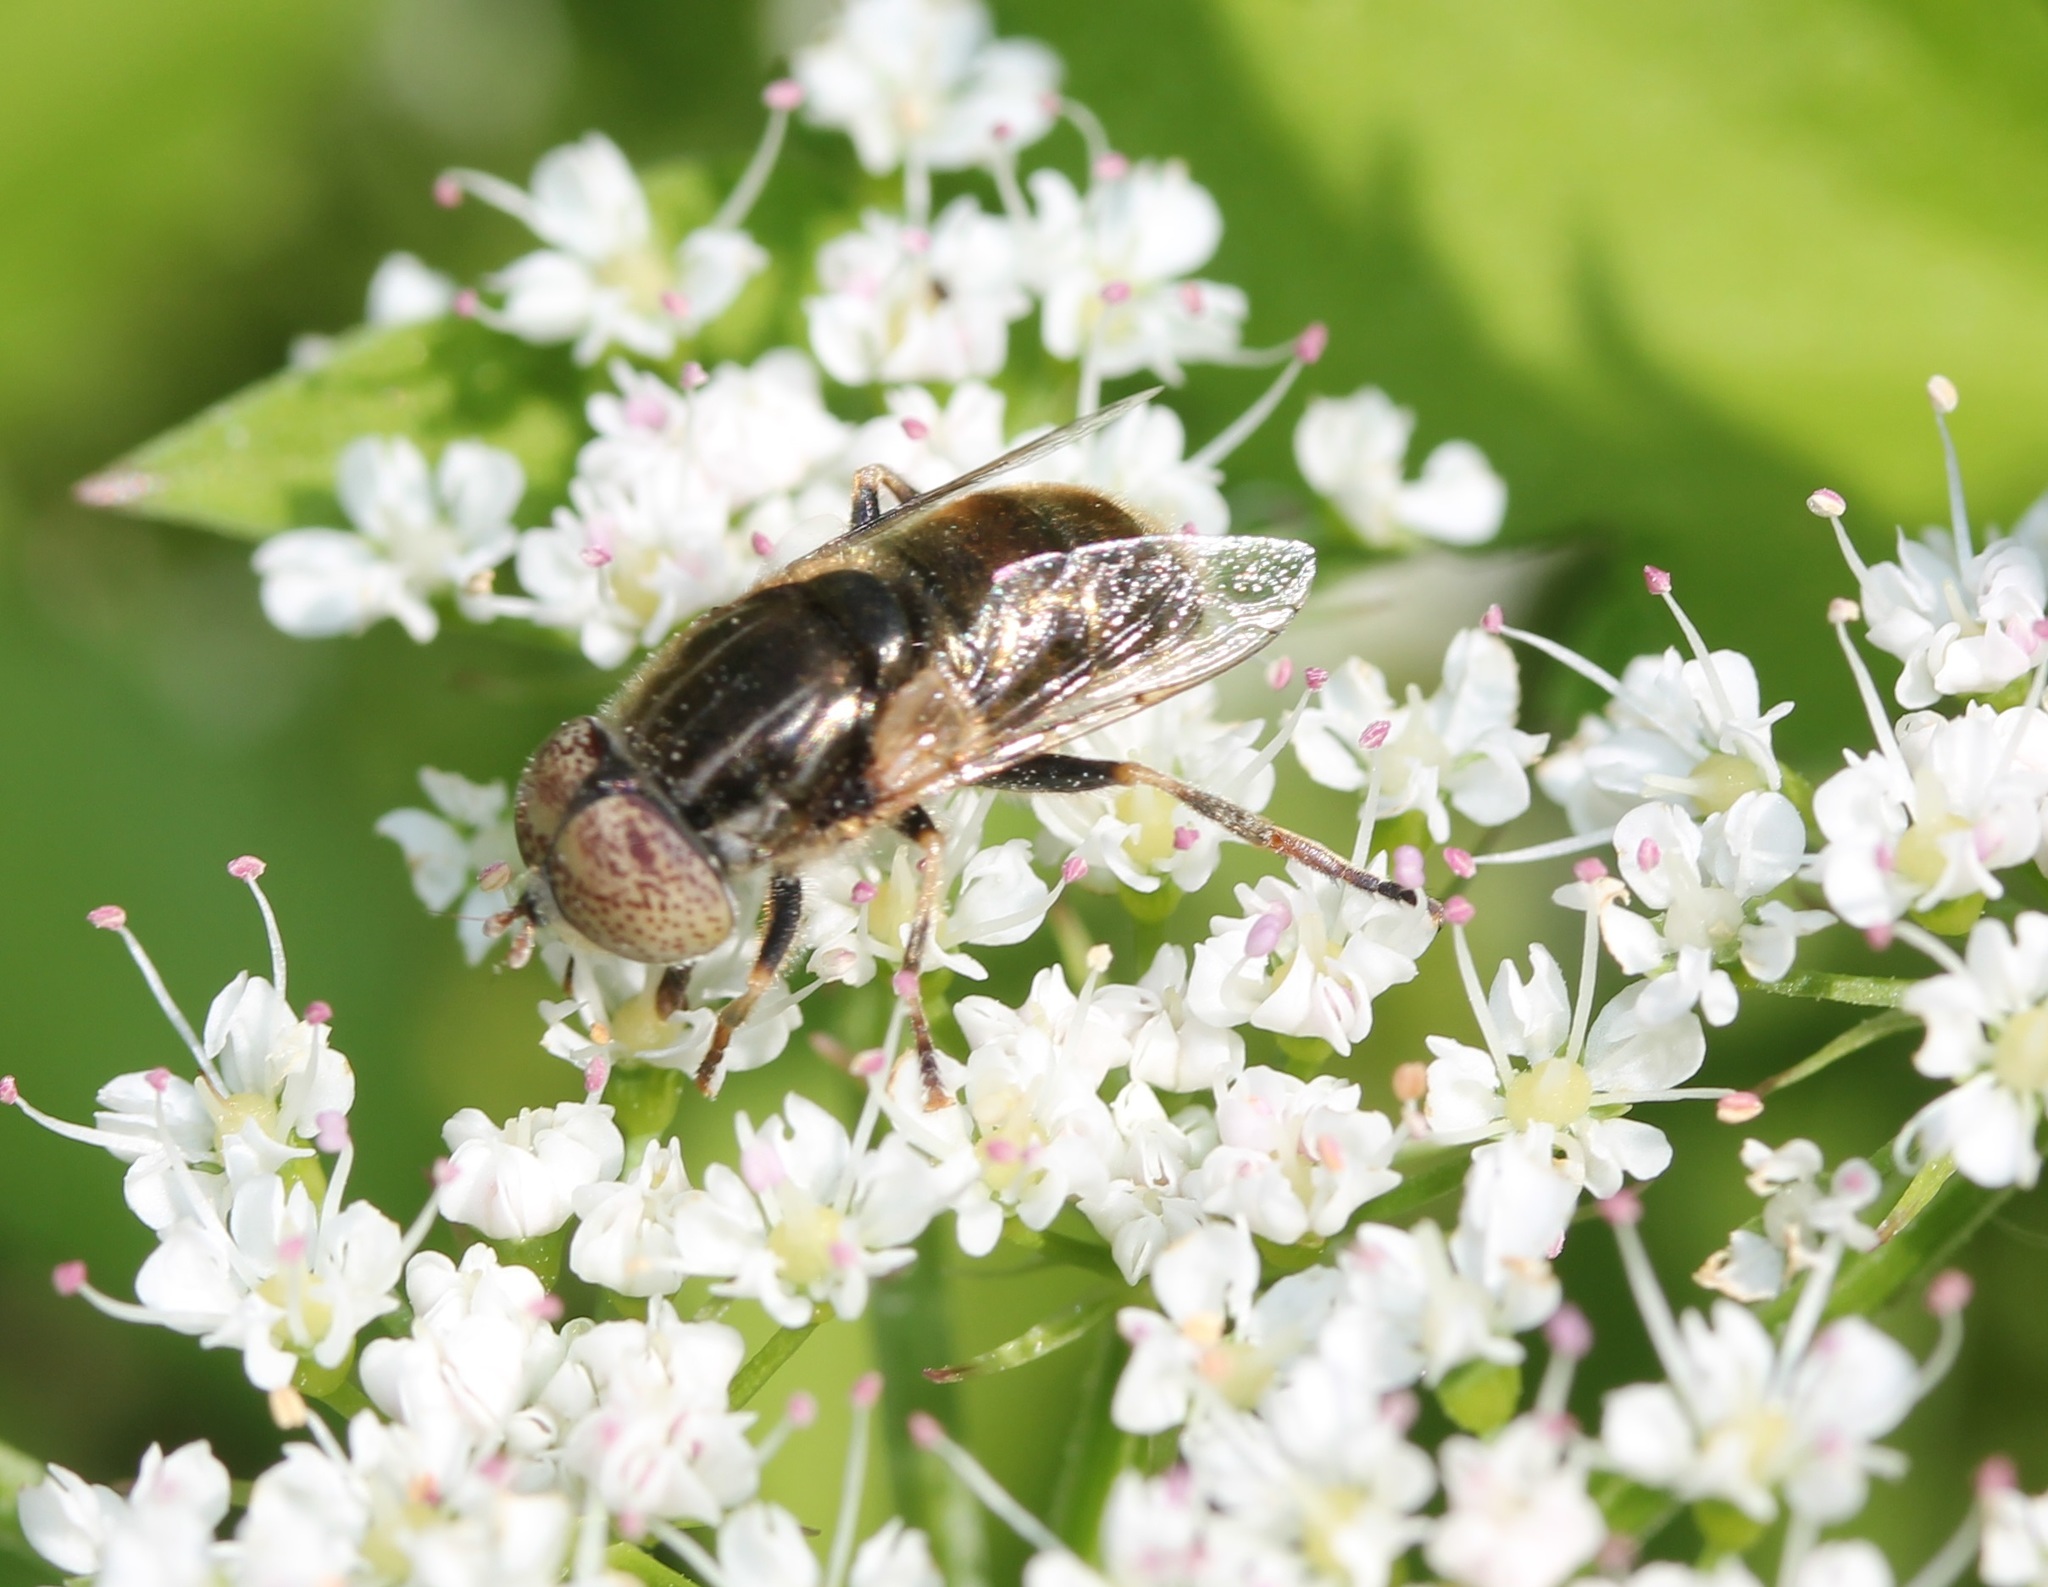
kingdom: Animalia
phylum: Arthropoda
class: Insecta
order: Diptera
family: Syrphidae
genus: Eristalinus
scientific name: Eristalinus aeneus
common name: Syrphid fly
